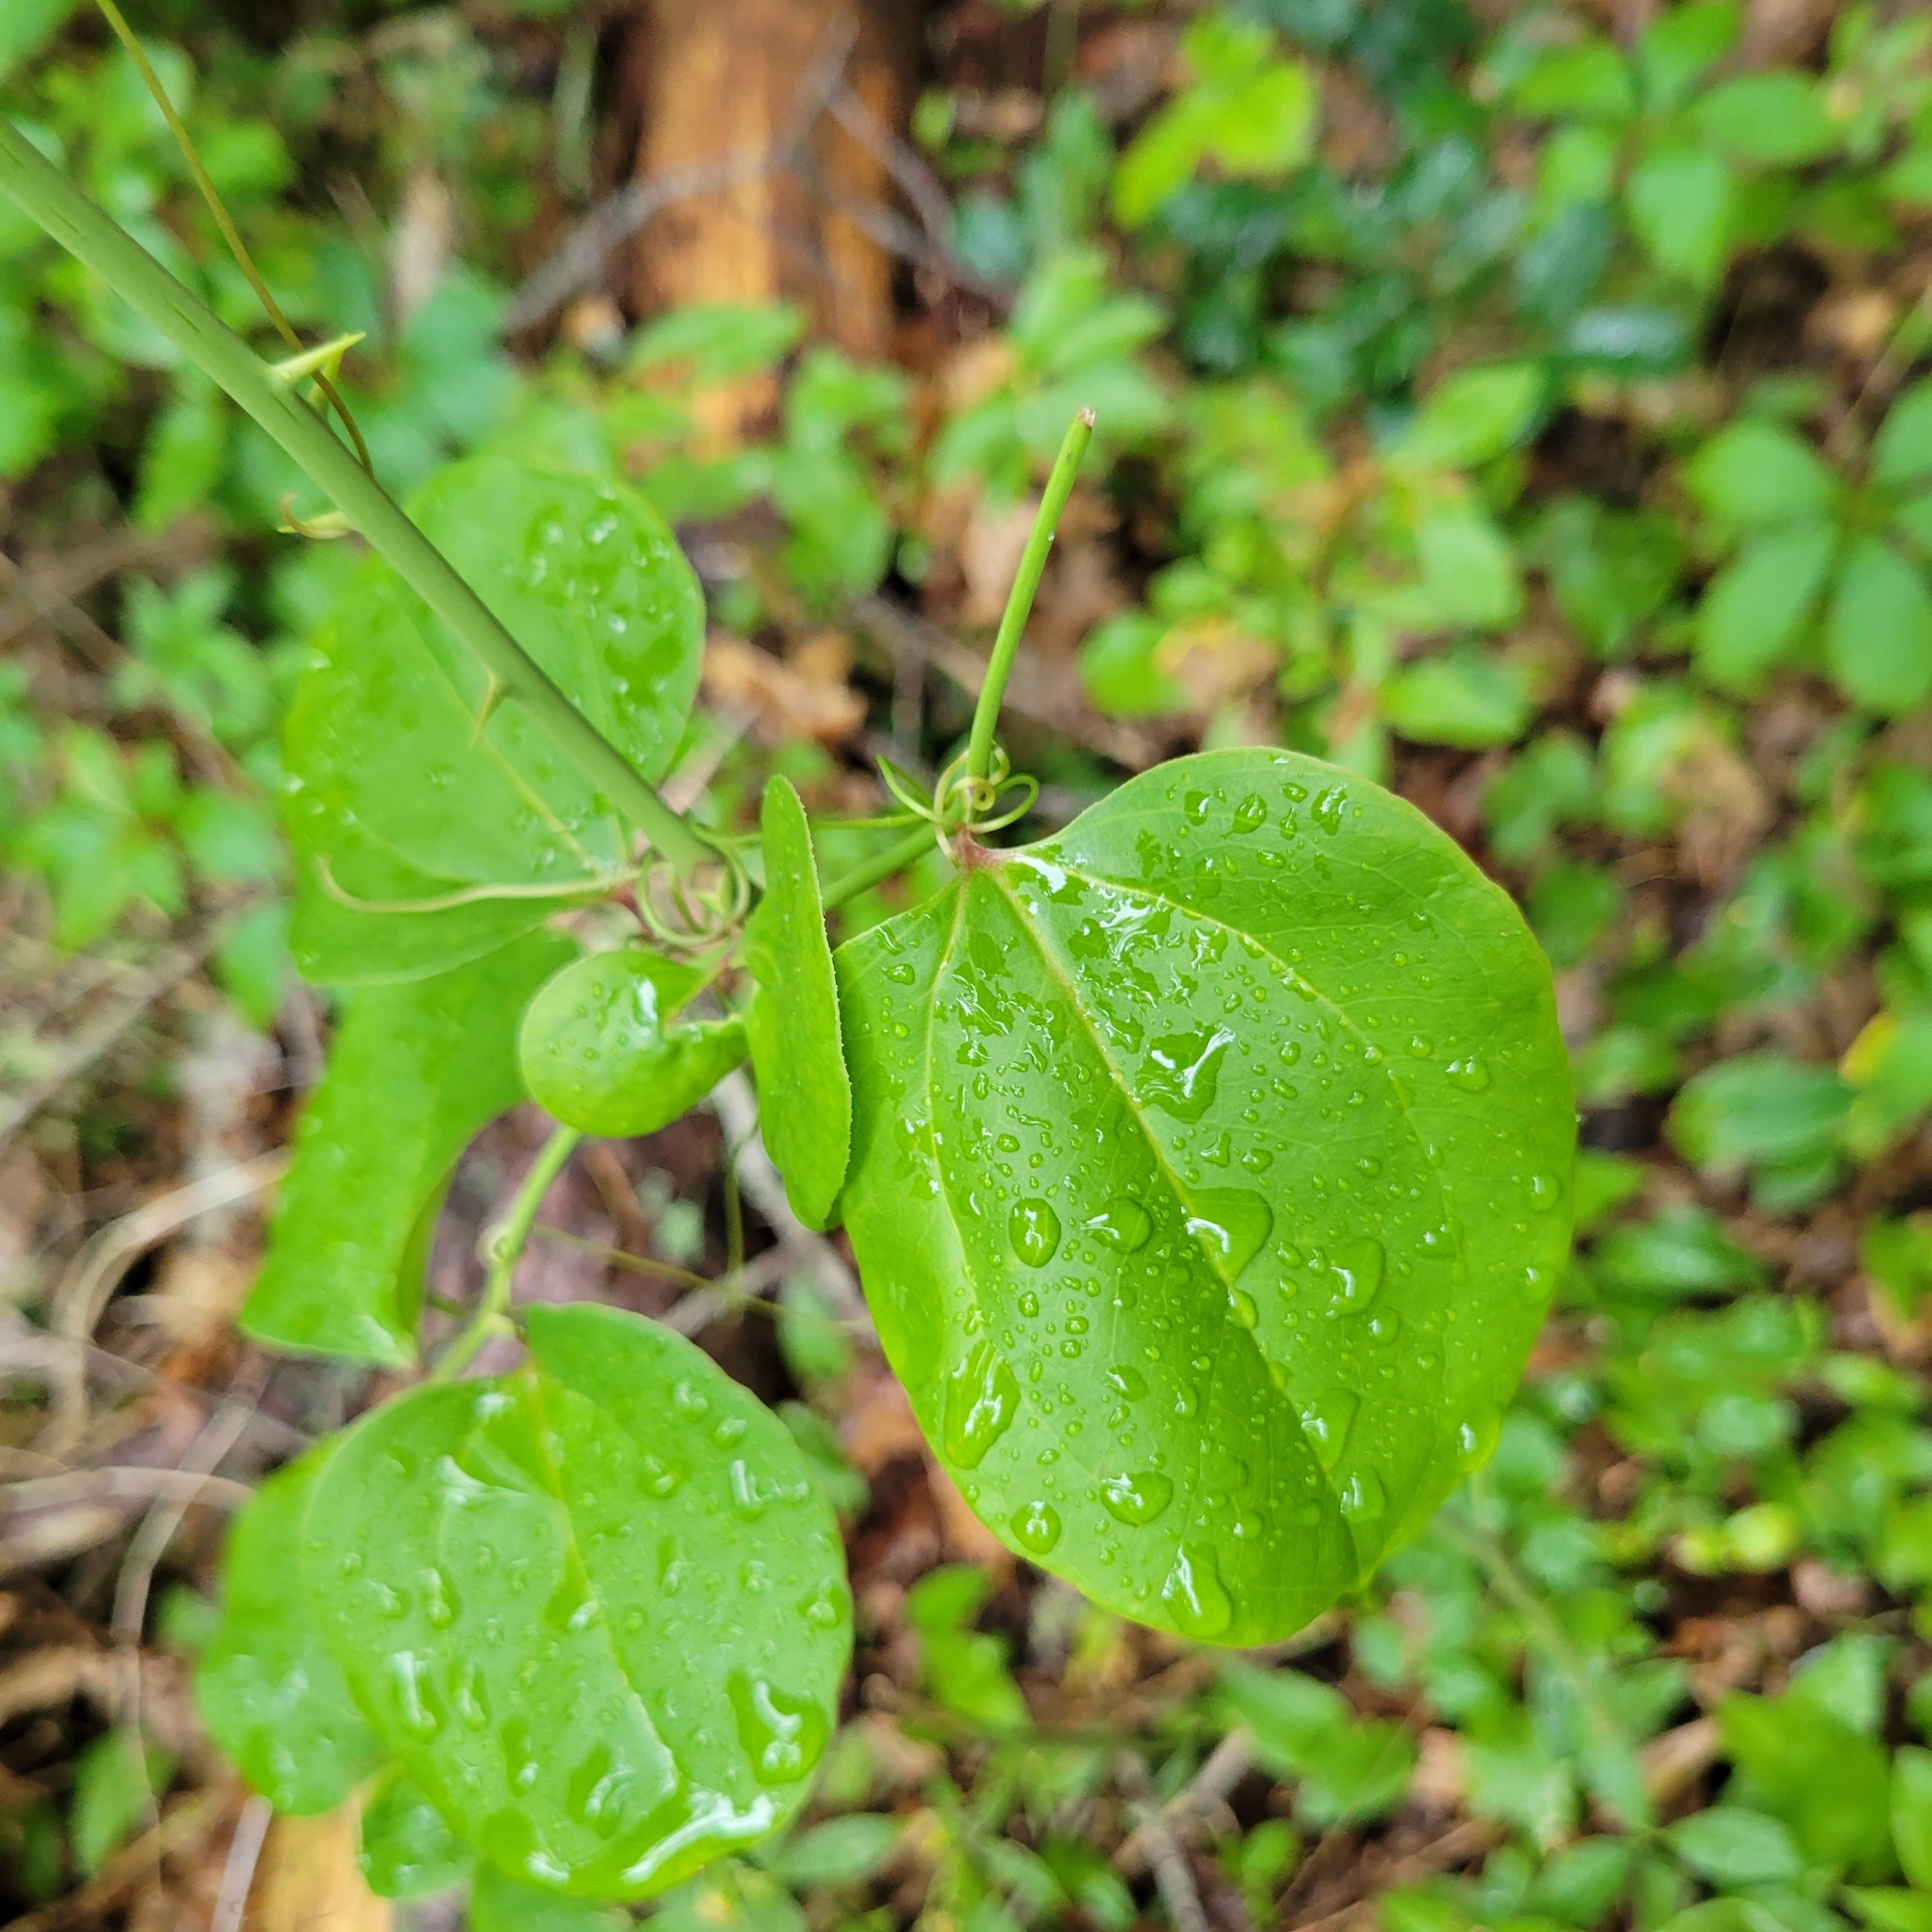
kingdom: Plantae
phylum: Tracheophyta
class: Liliopsida
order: Liliales
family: Smilacaceae
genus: Smilax
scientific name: Smilax rotundifolia
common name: Bullbriar
